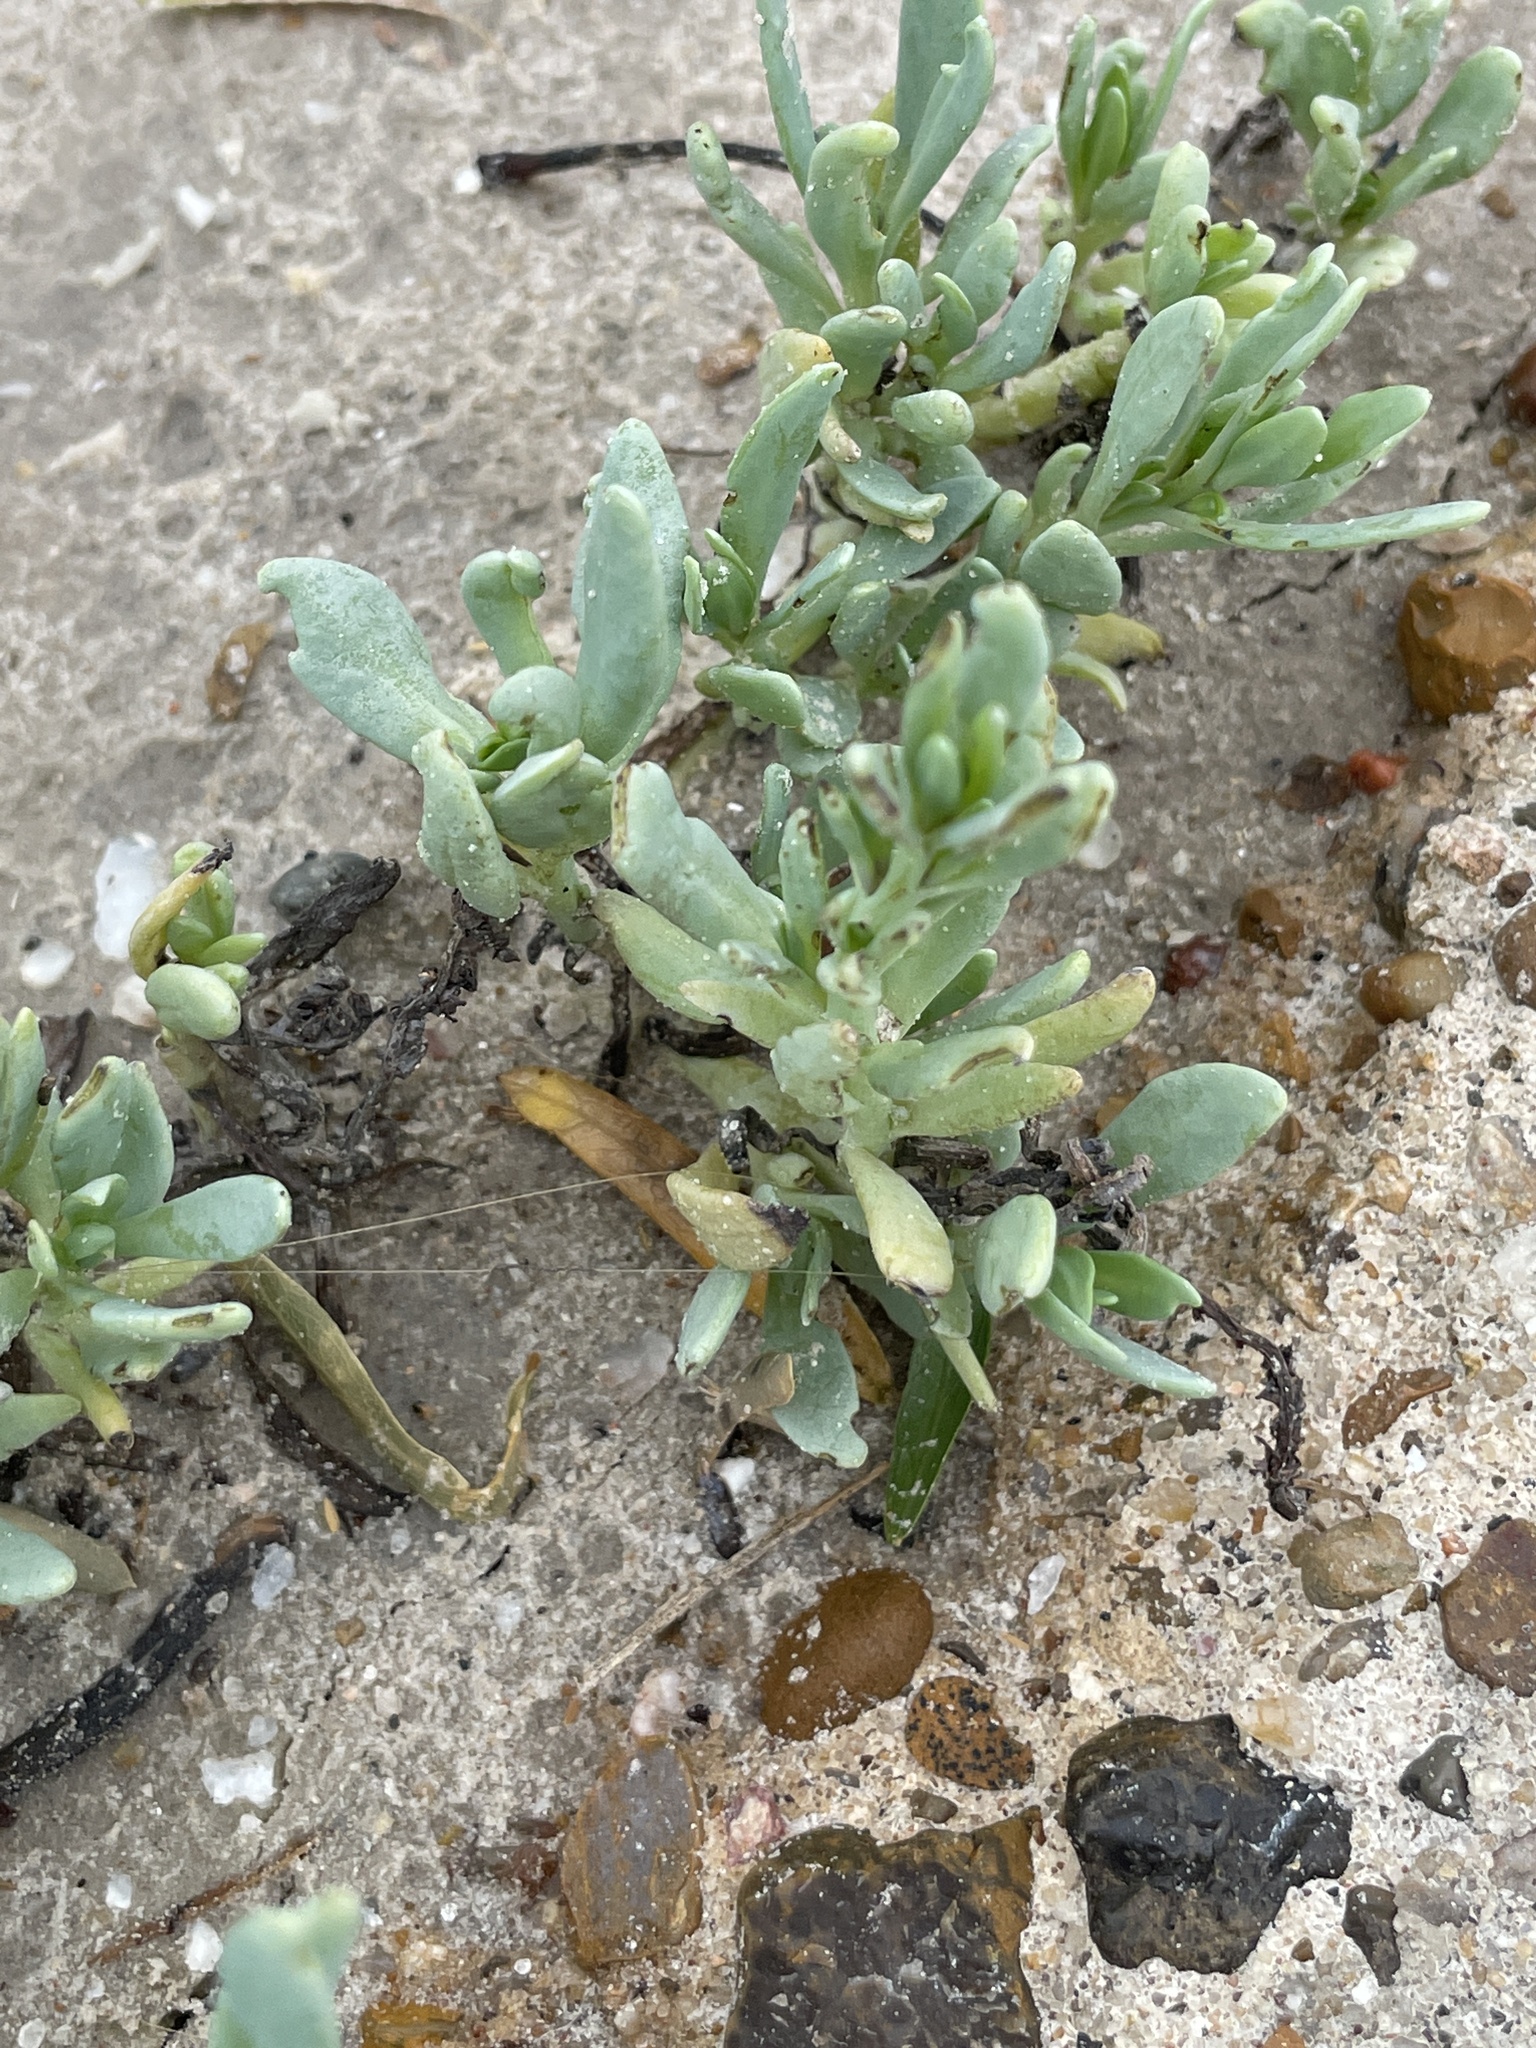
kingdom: Plantae
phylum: Tracheophyta
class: Magnoliopsida
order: Boraginales
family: Heliotropiaceae
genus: Heliotropium
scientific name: Heliotropium curassavicum
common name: Seaside heliotrope
